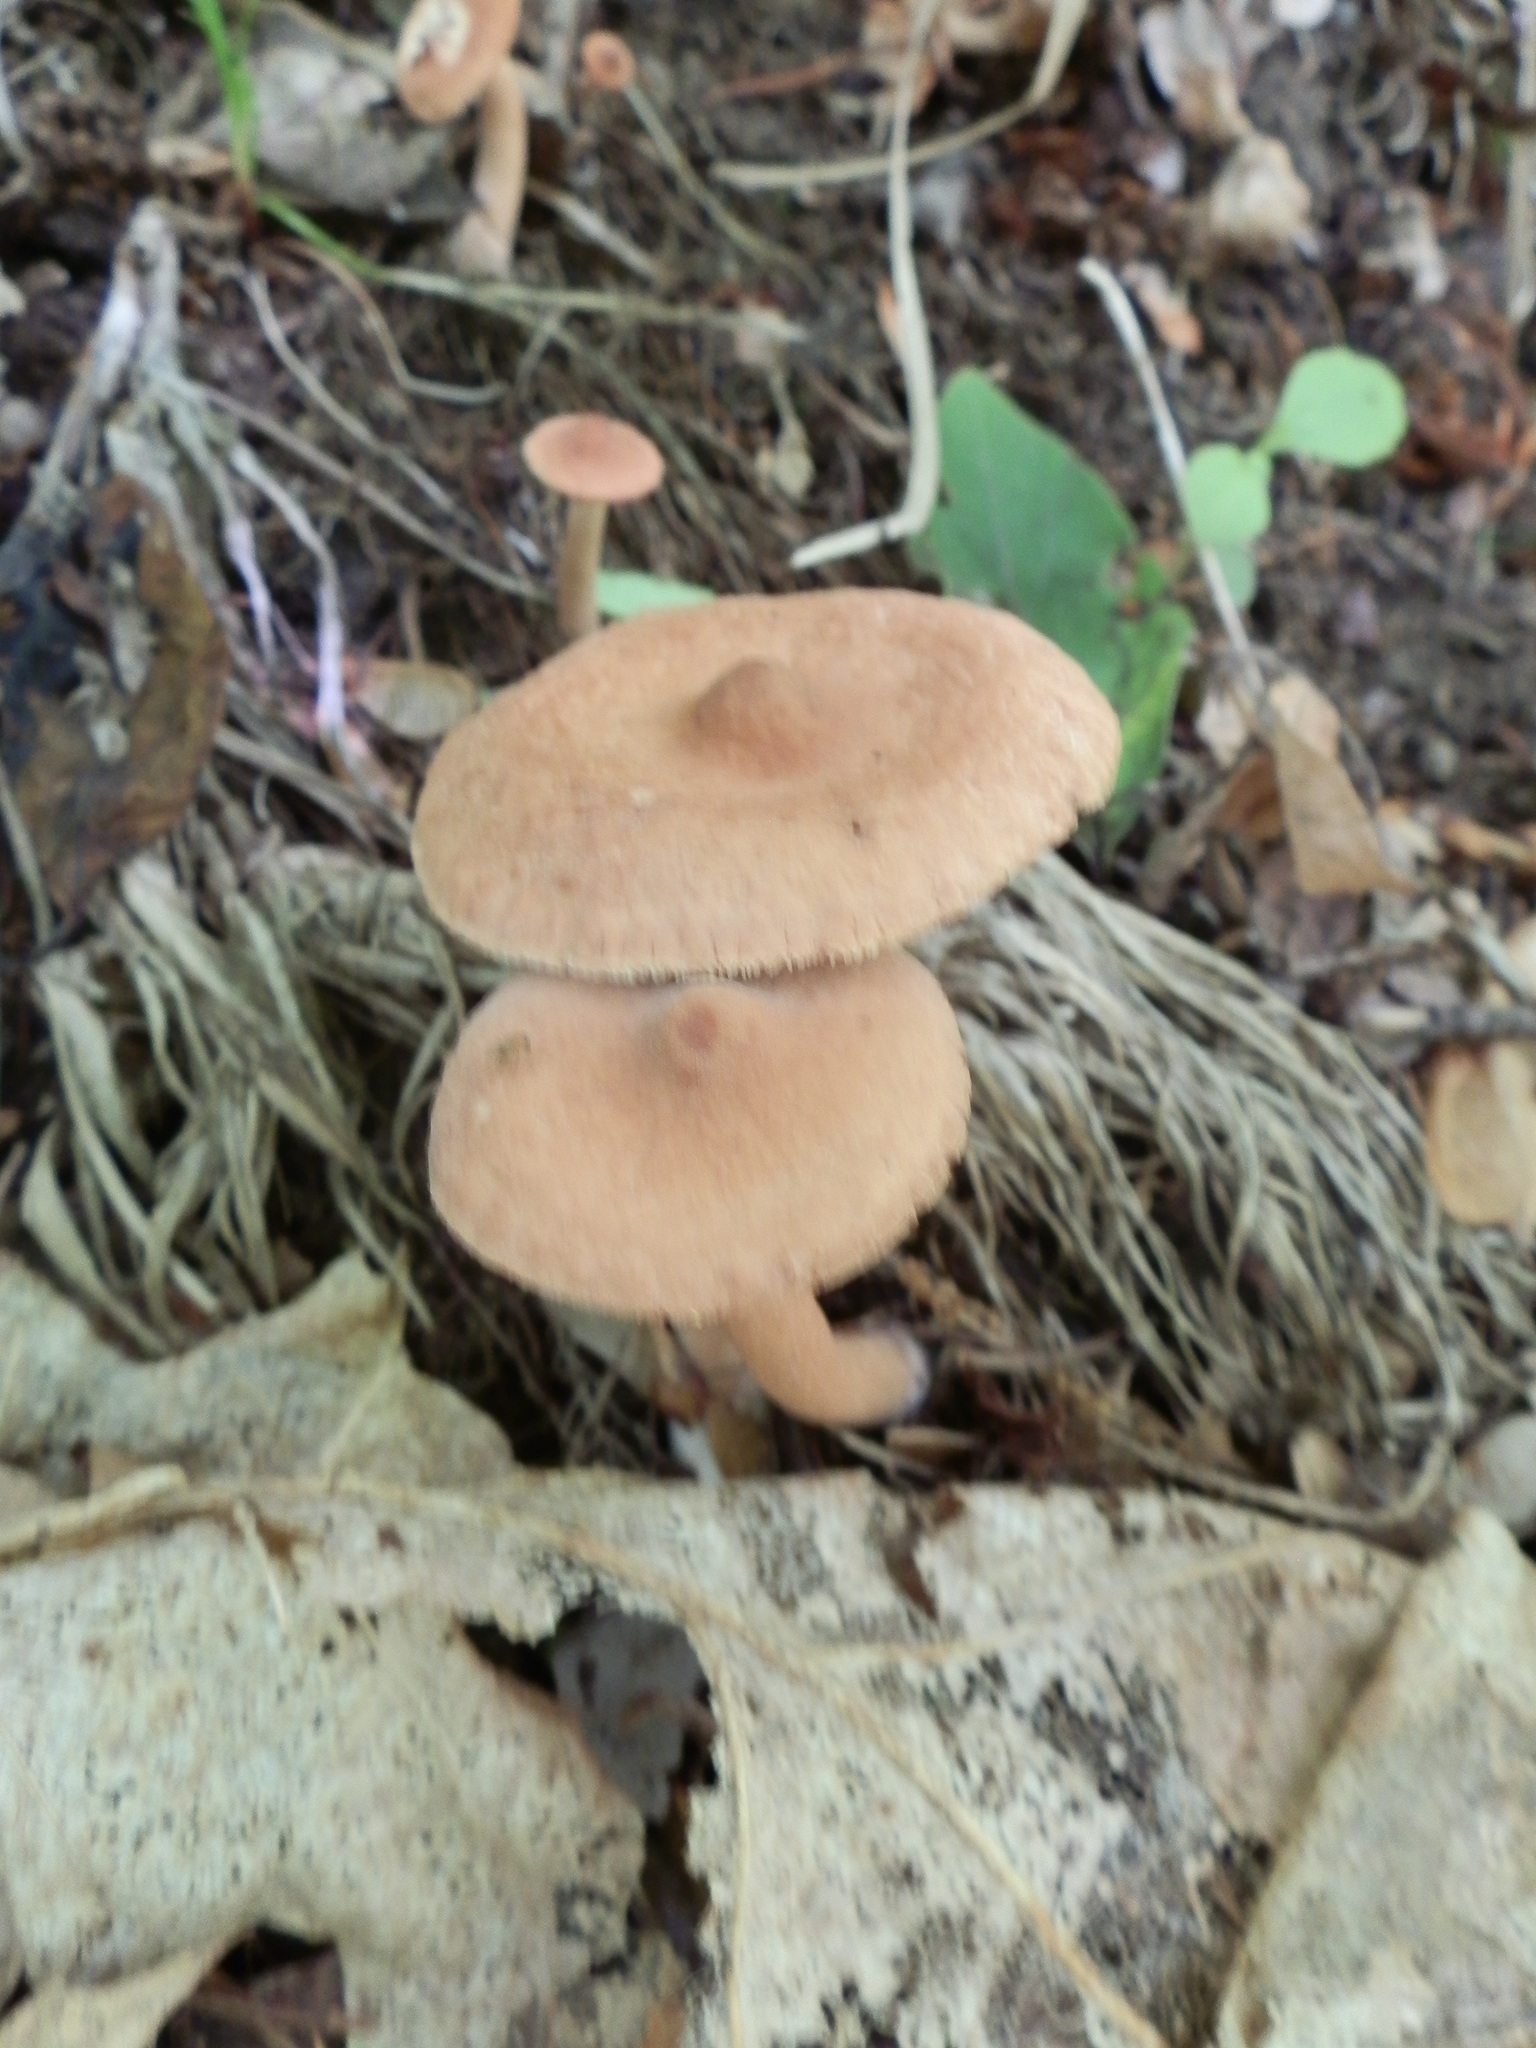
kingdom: Fungi
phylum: Basidiomycota
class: Agaricomycetes
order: Russulales
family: Russulaceae
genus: Lactarius
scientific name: Lactarius vinaceorufescens
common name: Yellow-latex milkcap
